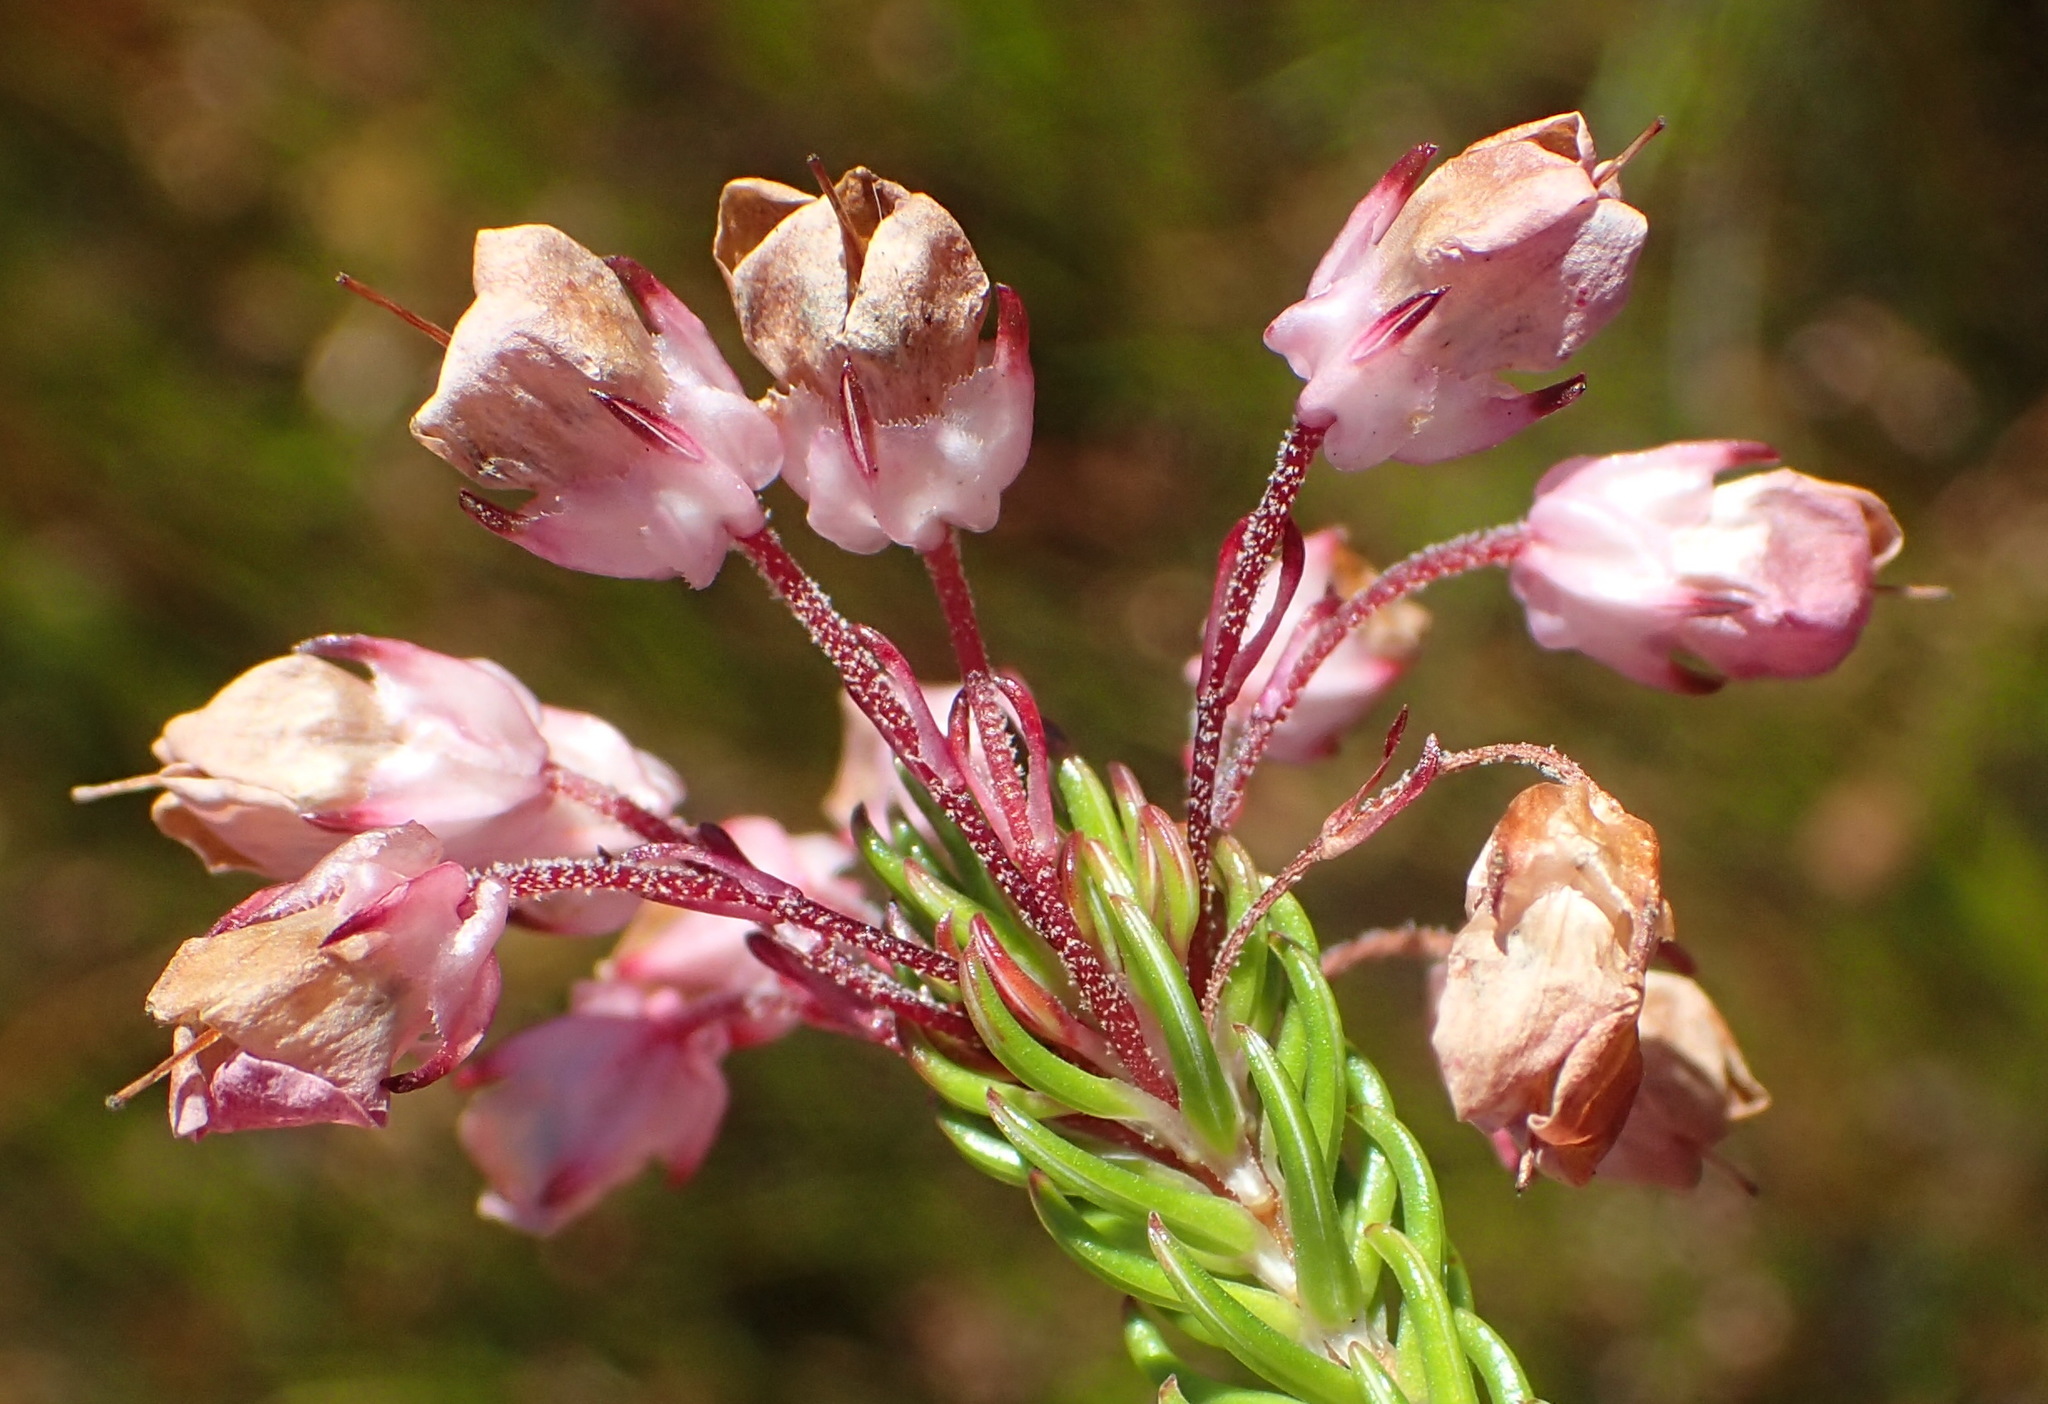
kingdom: Plantae
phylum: Tracheophyta
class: Magnoliopsida
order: Ericales
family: Ericaceae
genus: Erica
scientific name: Erica cubica
